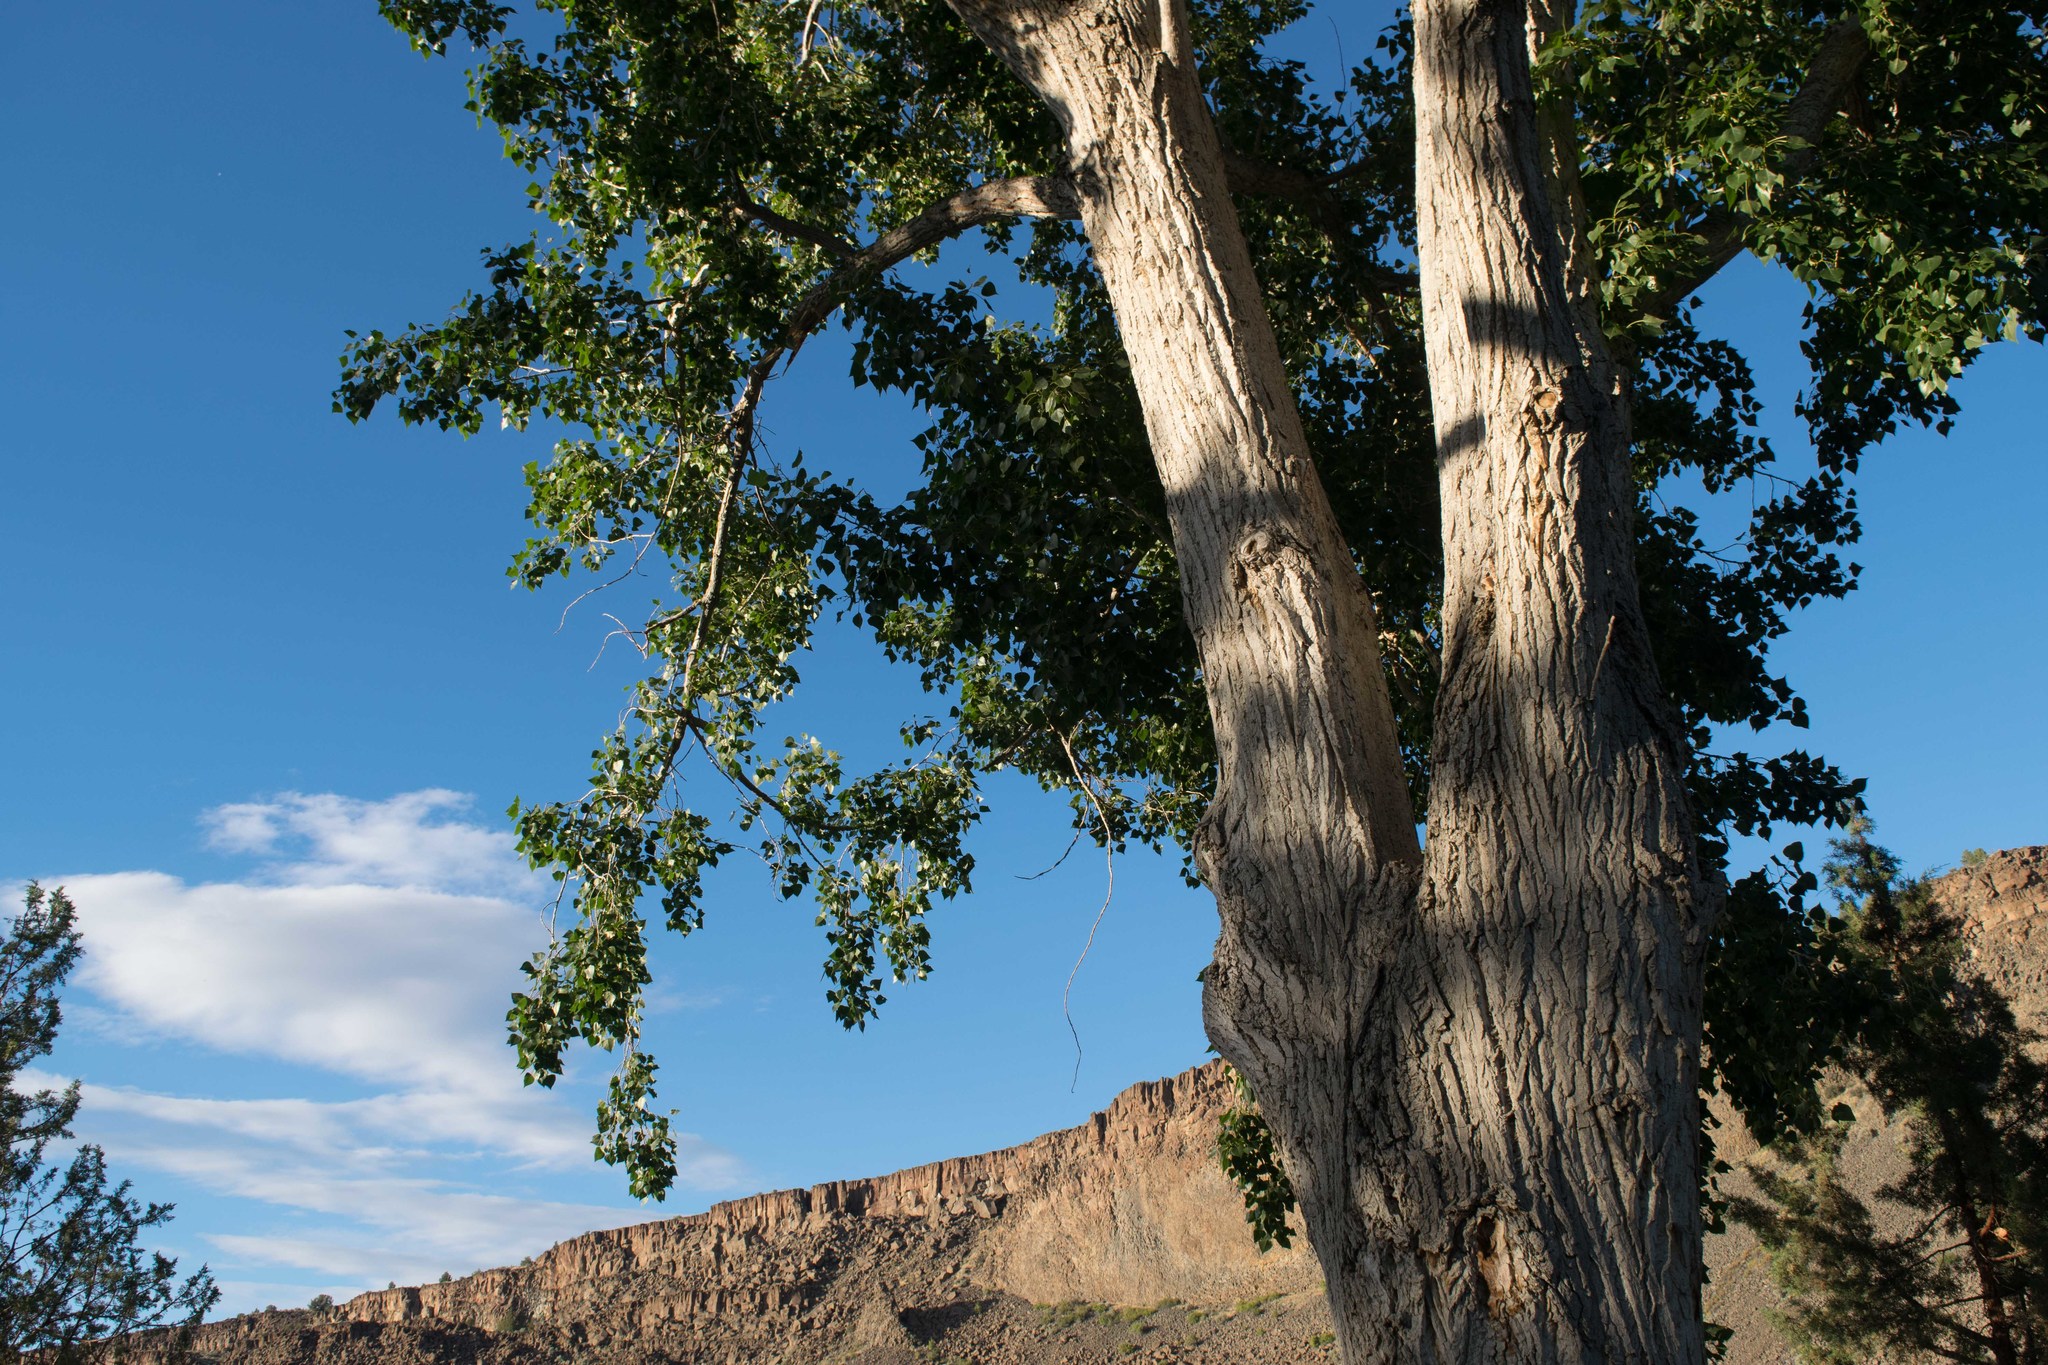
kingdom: Plantae
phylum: Tracheophyta
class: Magnoliopsida
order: Malpighiales
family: Salicaceae
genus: Populus
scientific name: Populus trichocarpa
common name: Black cottonwood
